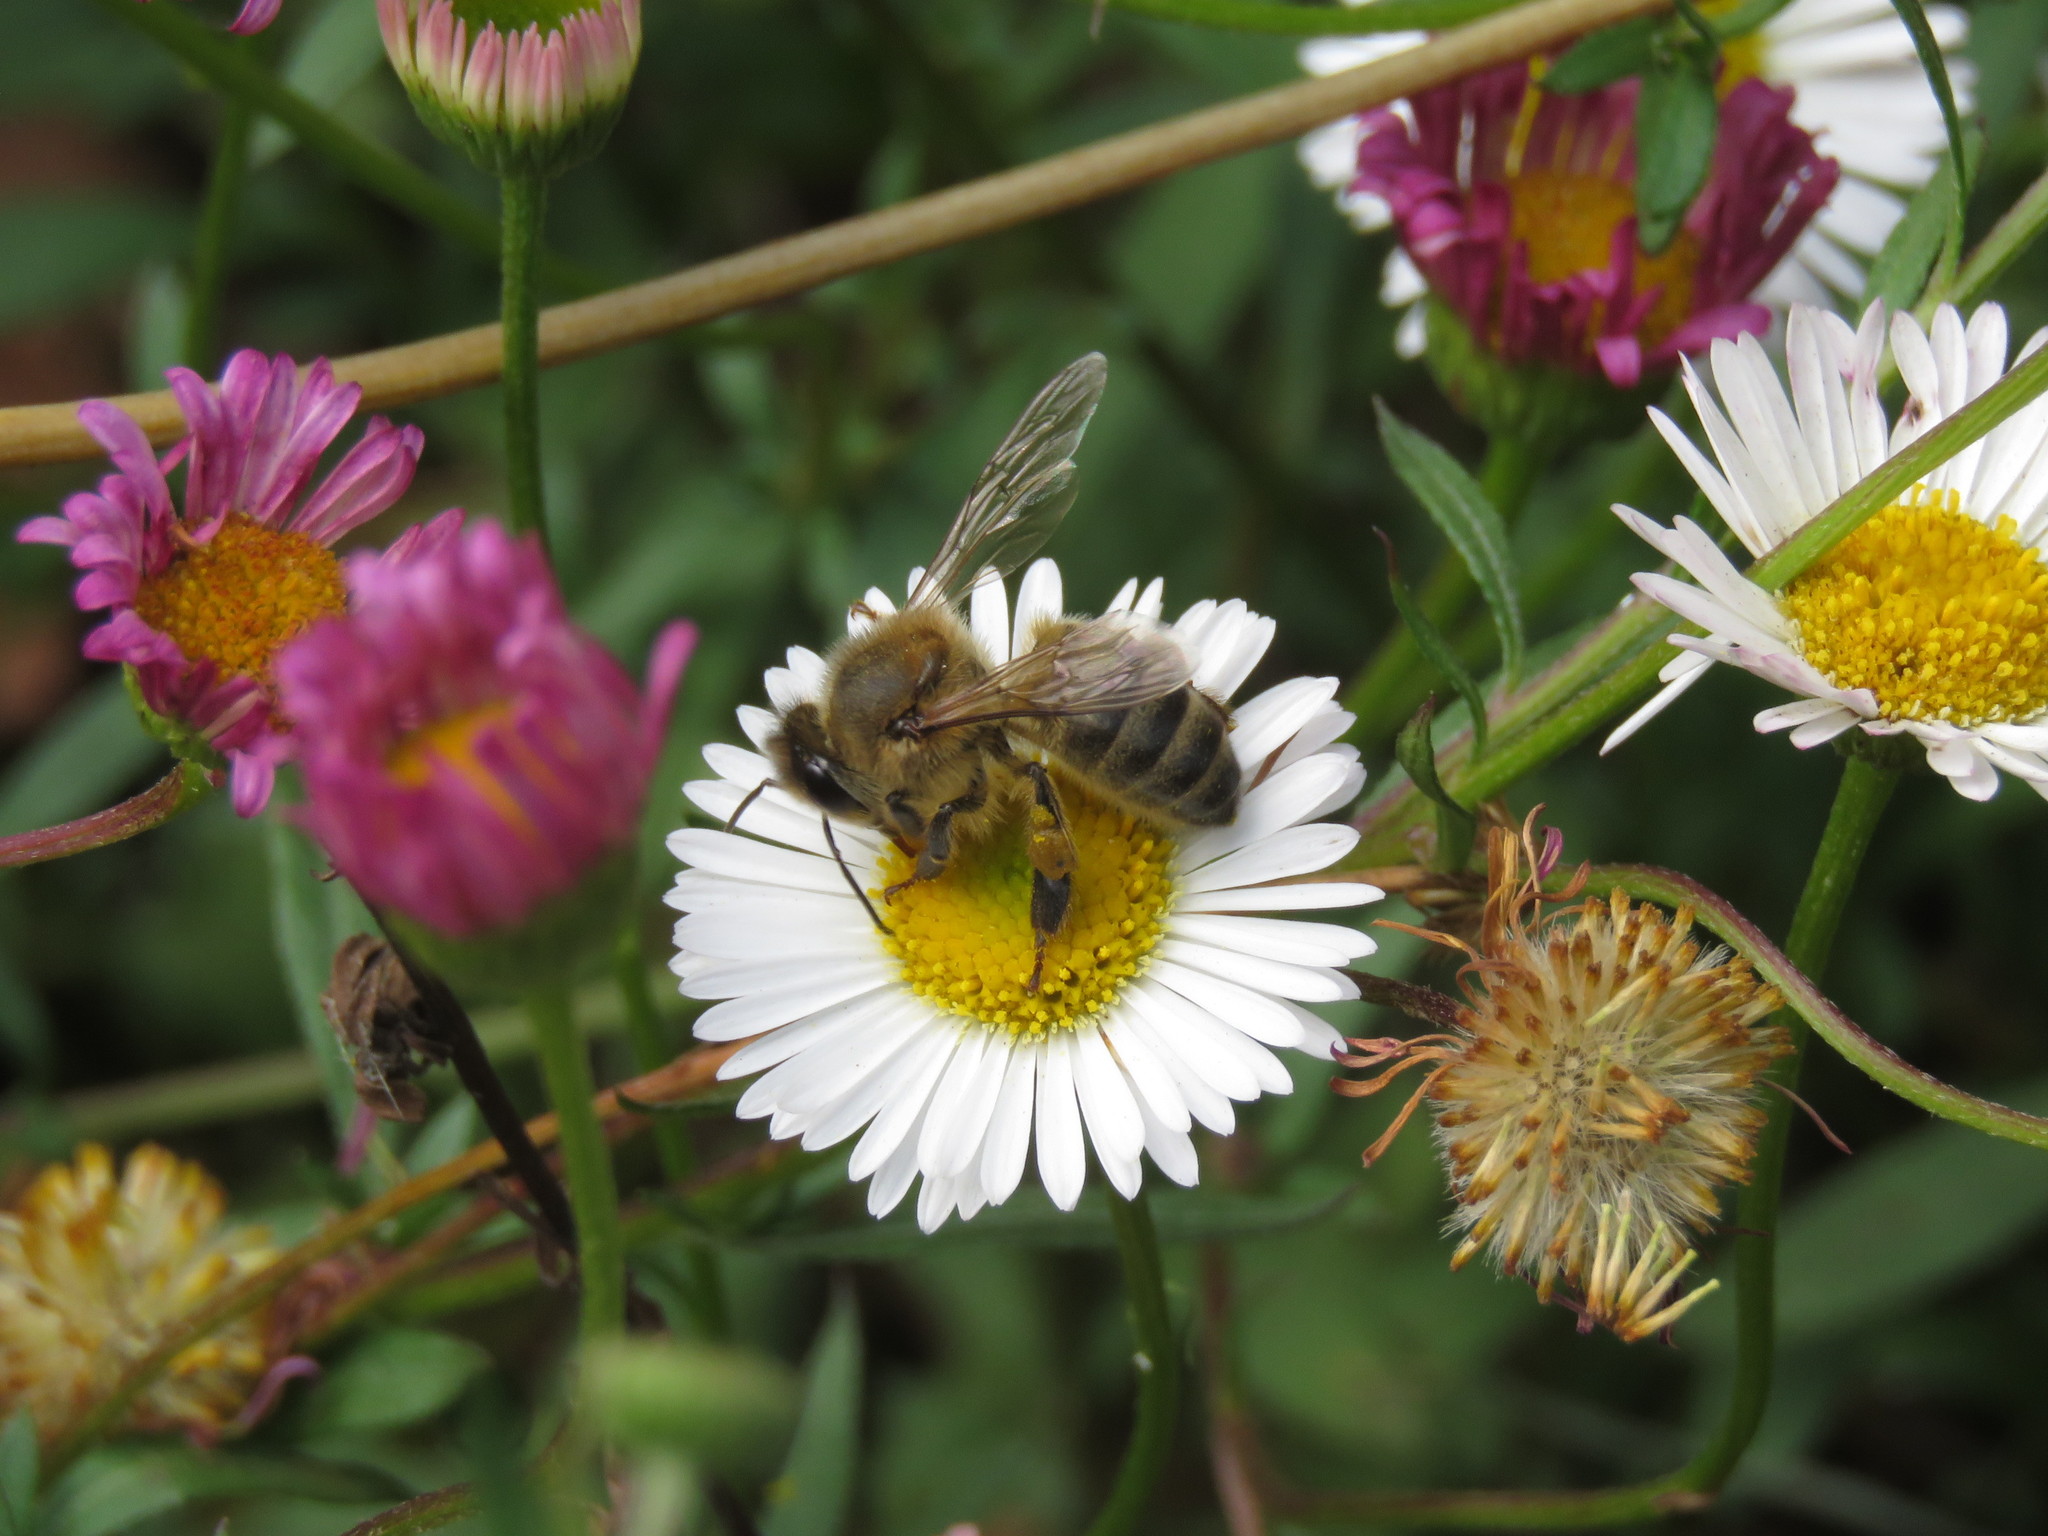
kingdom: Animalia
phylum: Arthropoda
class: Insecta
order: Hymenoptera
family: Apidae
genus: Apis
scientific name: Apis mellifera
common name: Honey bee
